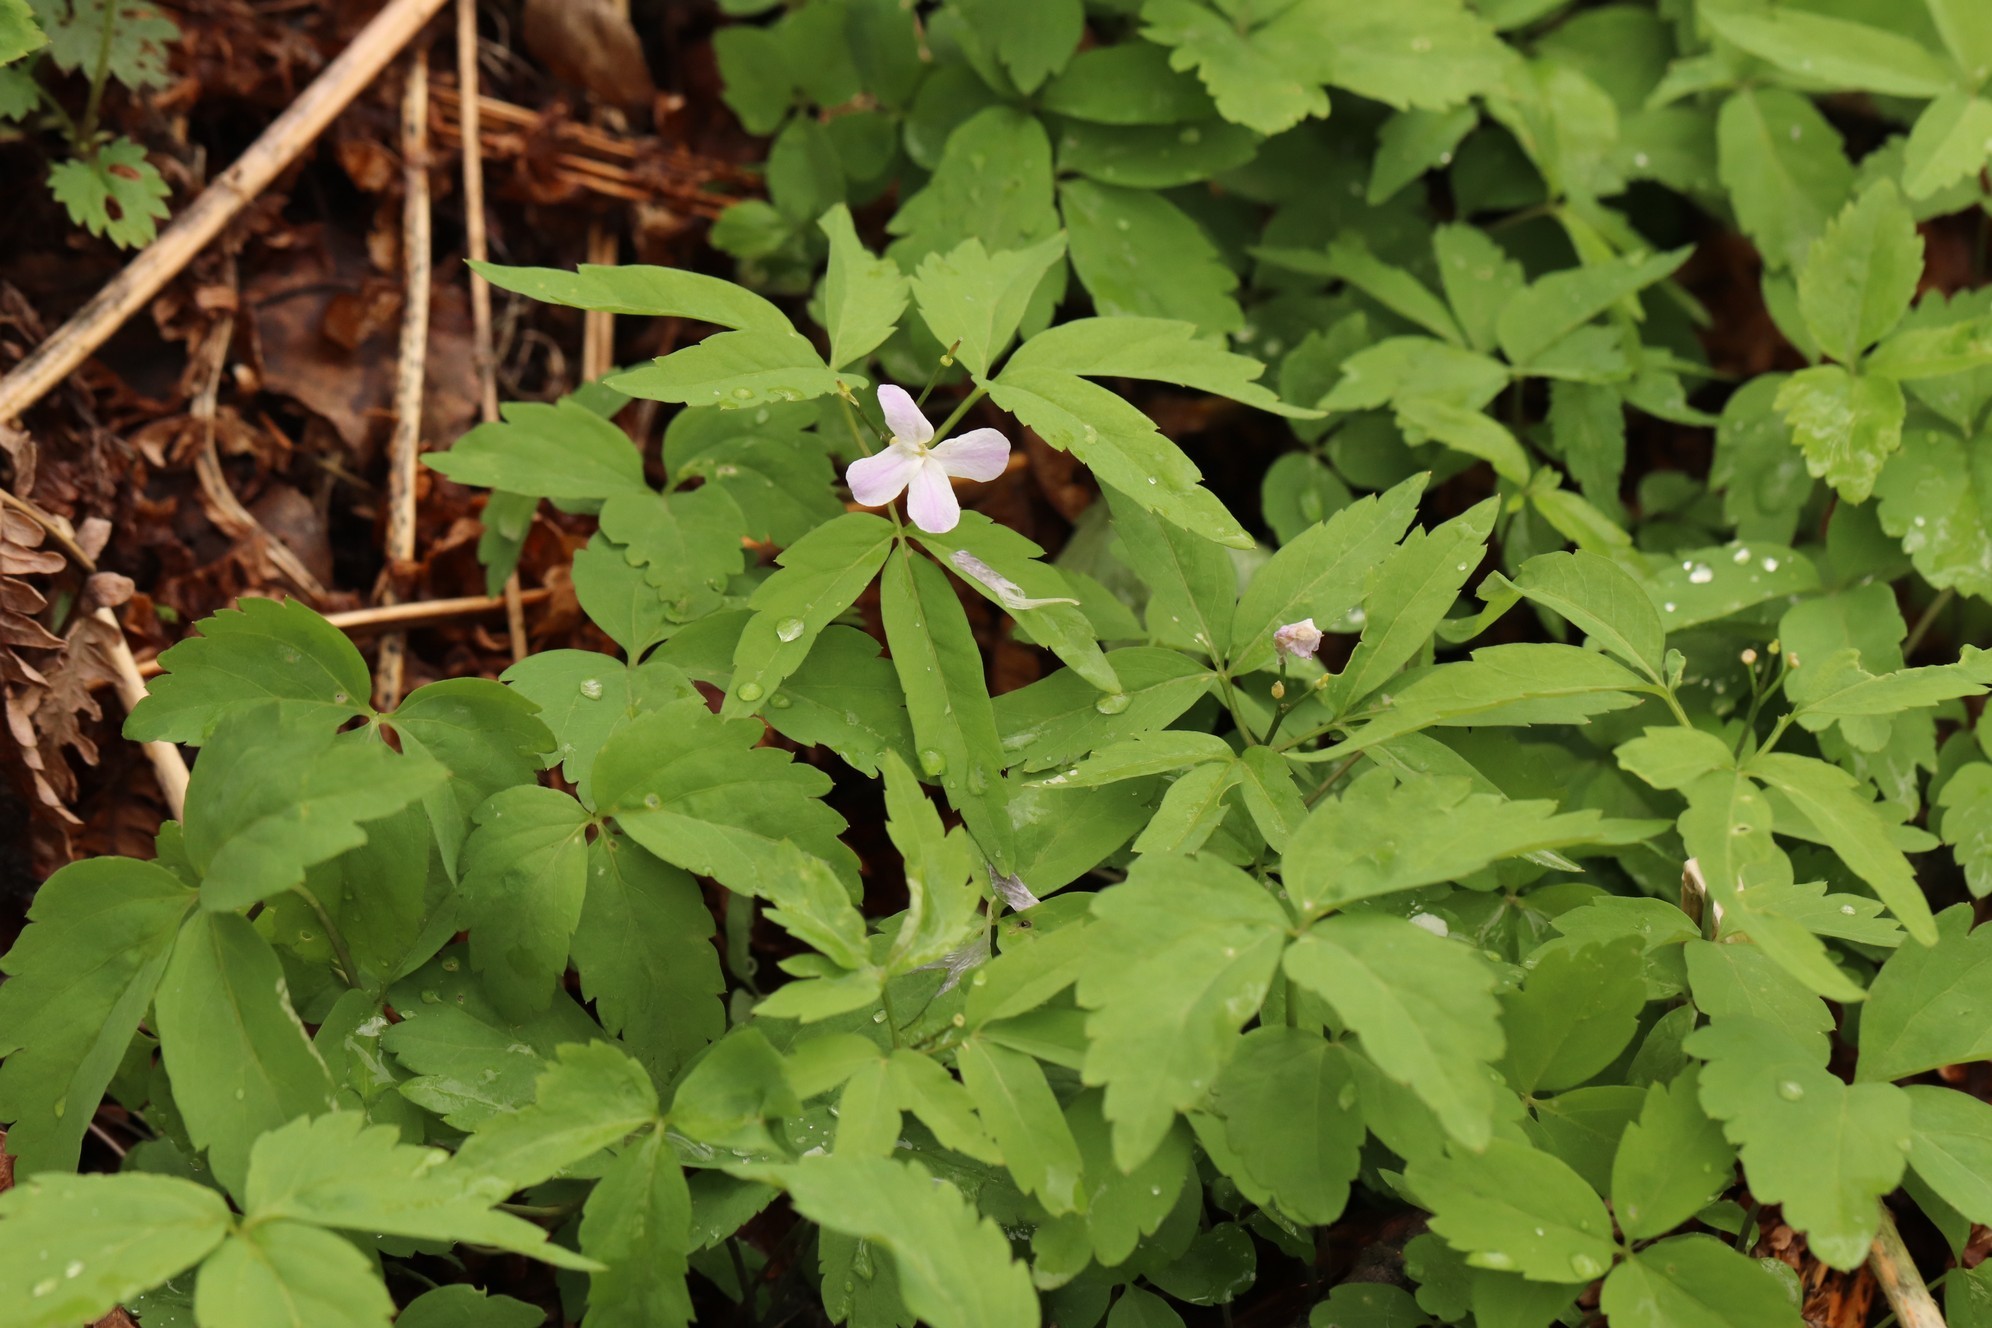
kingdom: Plantae
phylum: Tracheophyta
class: Magnoliopsida
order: Brassicales
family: Brassicaceae
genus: Cardamine
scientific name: Cardamine altaica
